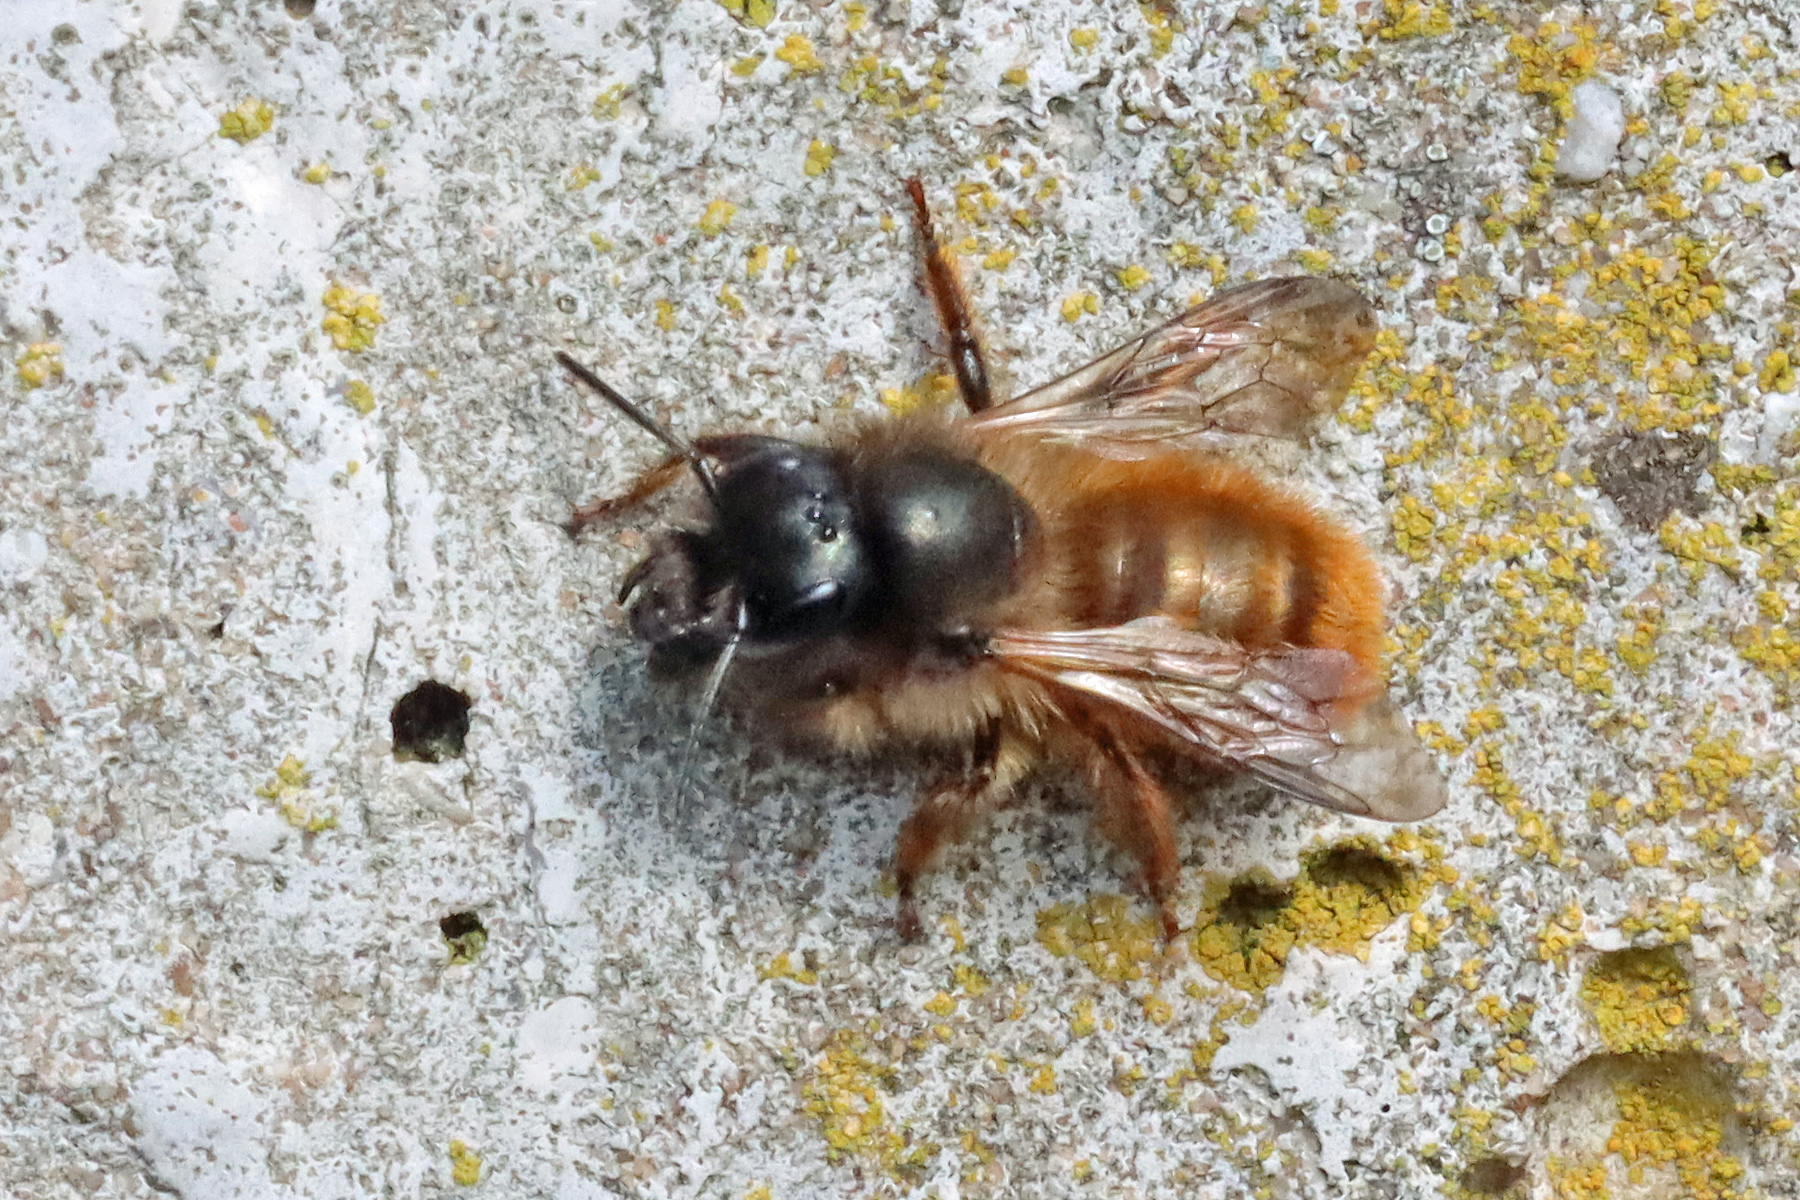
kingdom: Animalia
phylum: Arthropoda
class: Insecta
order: Hymenoptera
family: Megachilidae
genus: Osmia
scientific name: Osmia bicornis
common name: Red mason bee
